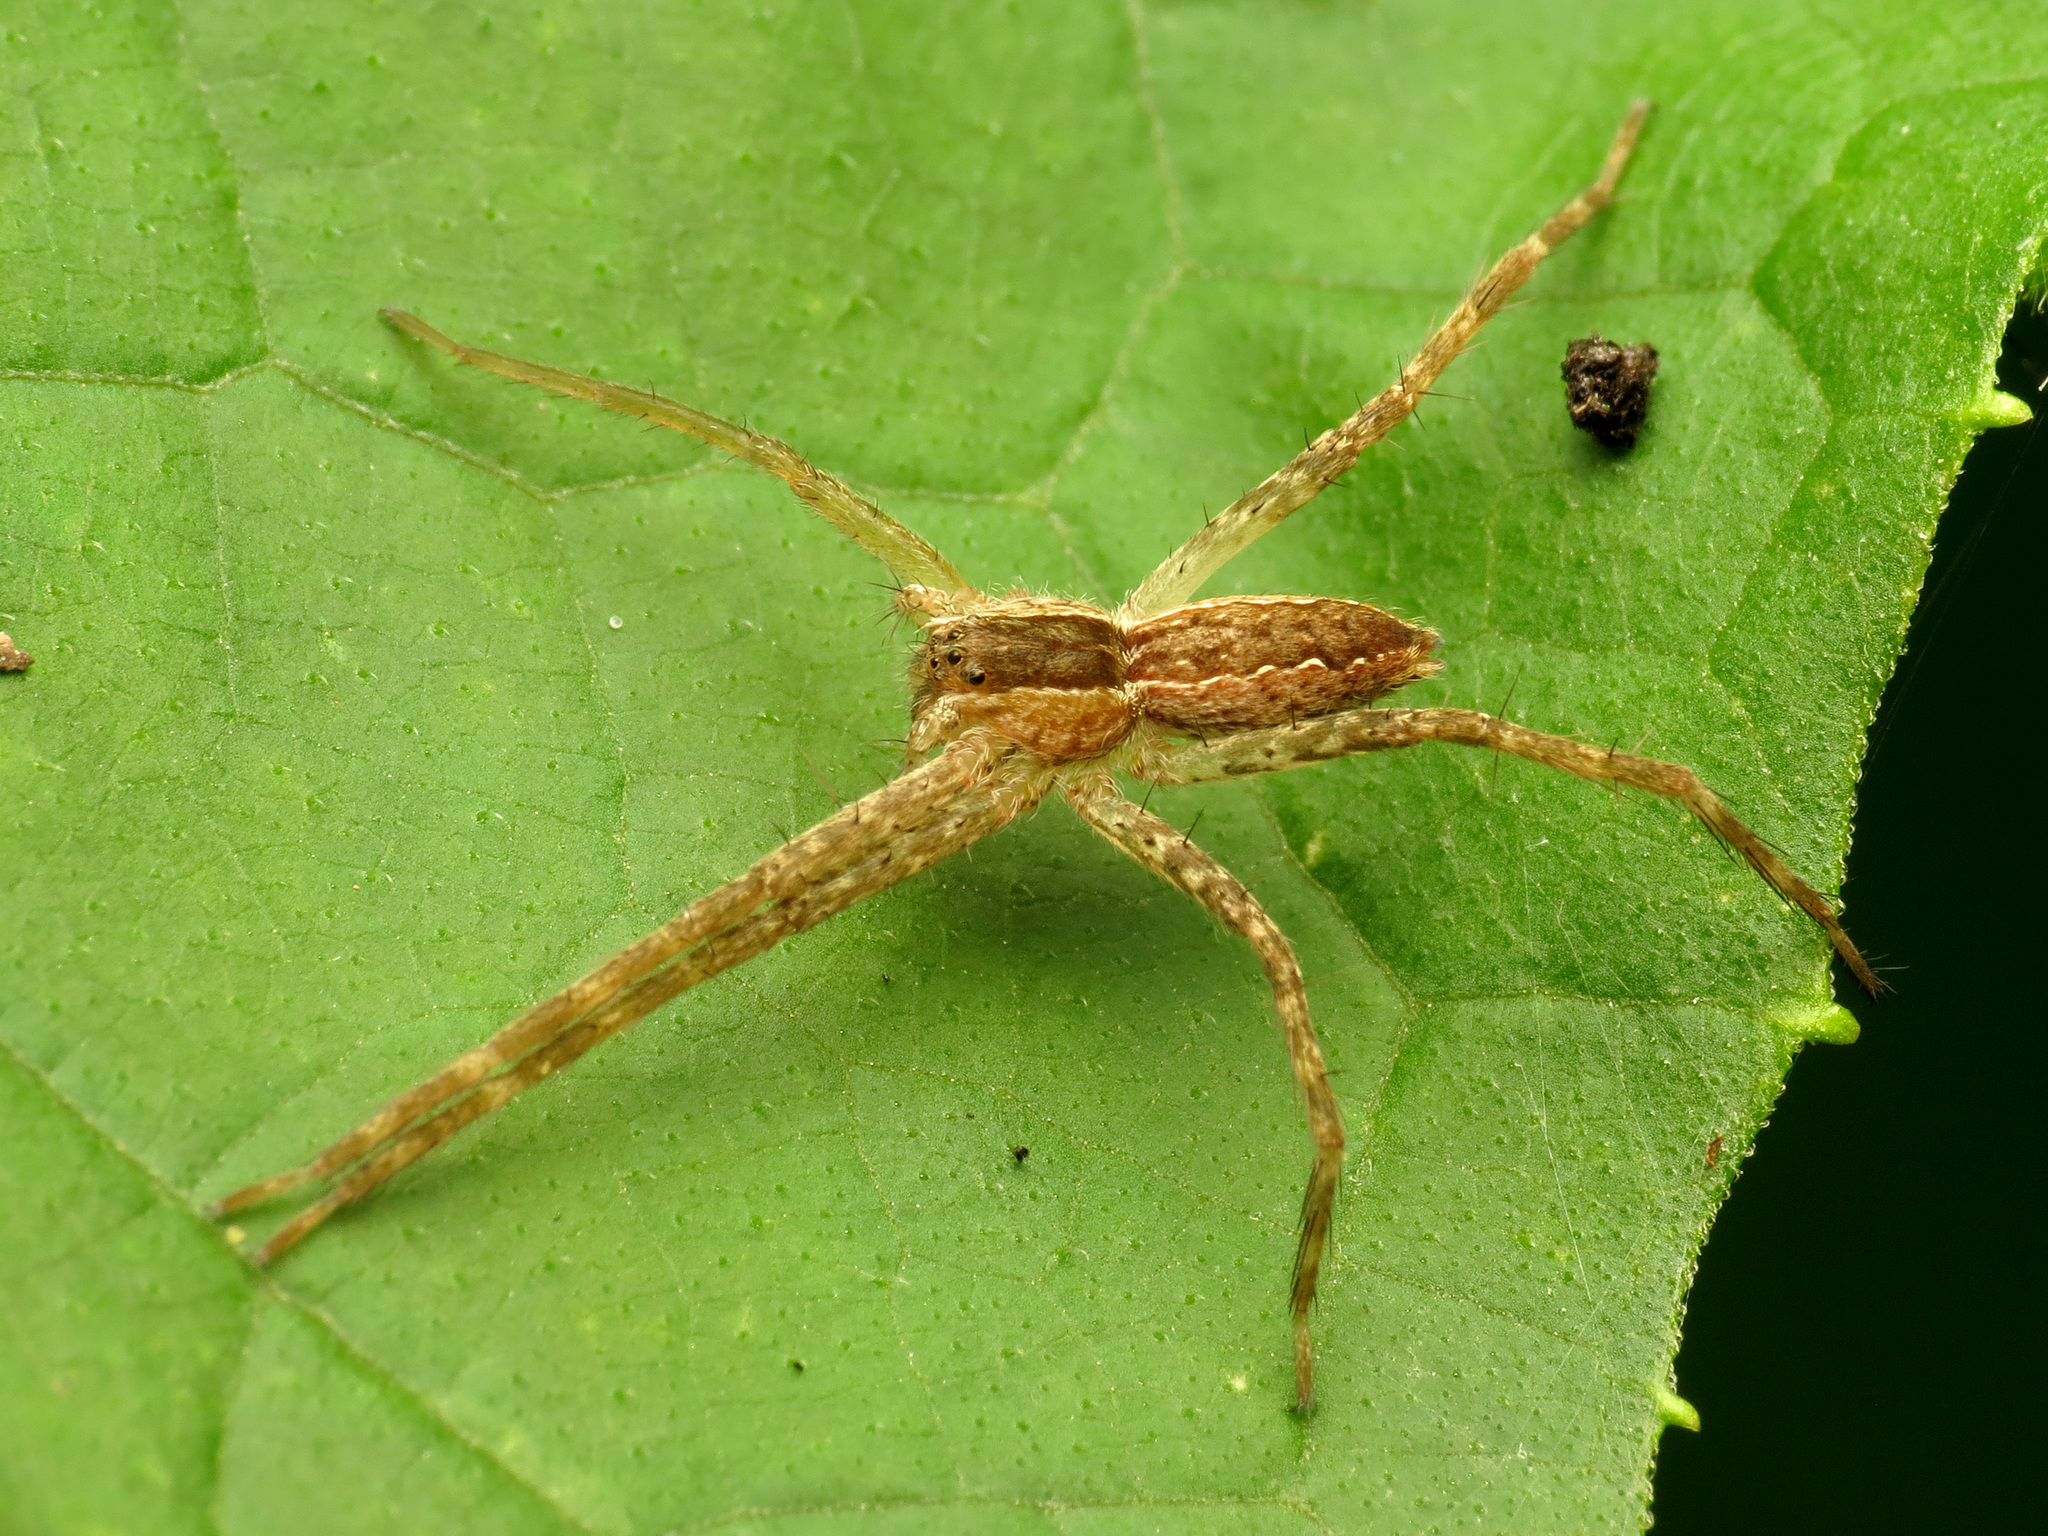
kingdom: Animalia
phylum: Arthropoda
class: Arachnida
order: Araneae
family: Pisauridae
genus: Pisaurina
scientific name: Pisaurina mira
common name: American nursery web spider
